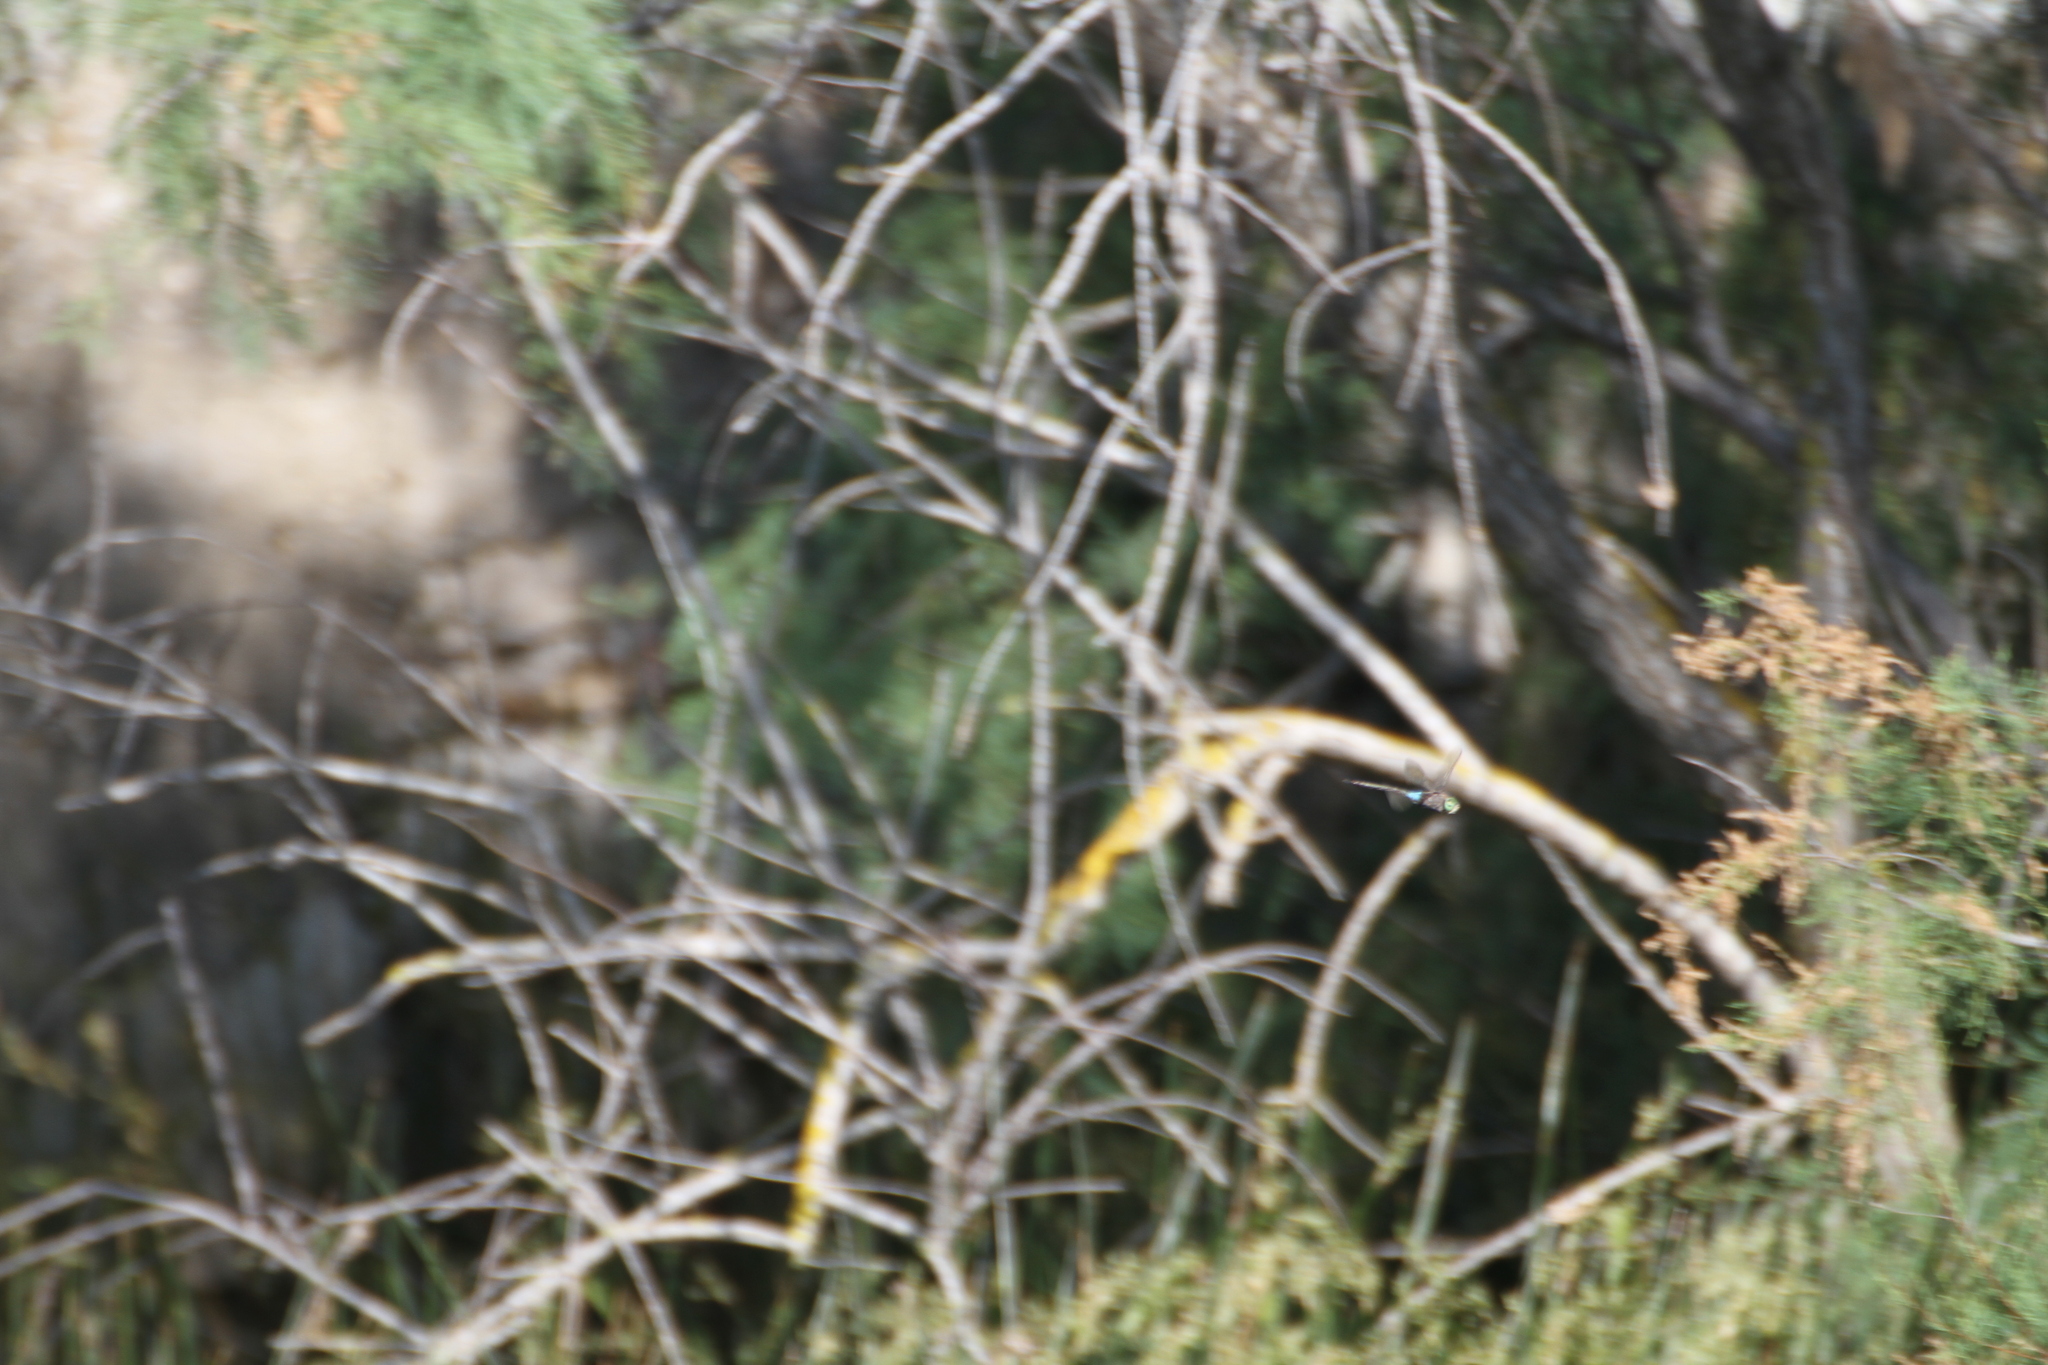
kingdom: Animalia
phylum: Arthropoda
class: Insecta
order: Odonata
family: Aeshnidae
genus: Anax
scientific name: Anax parthenope
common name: Lesser emperor
